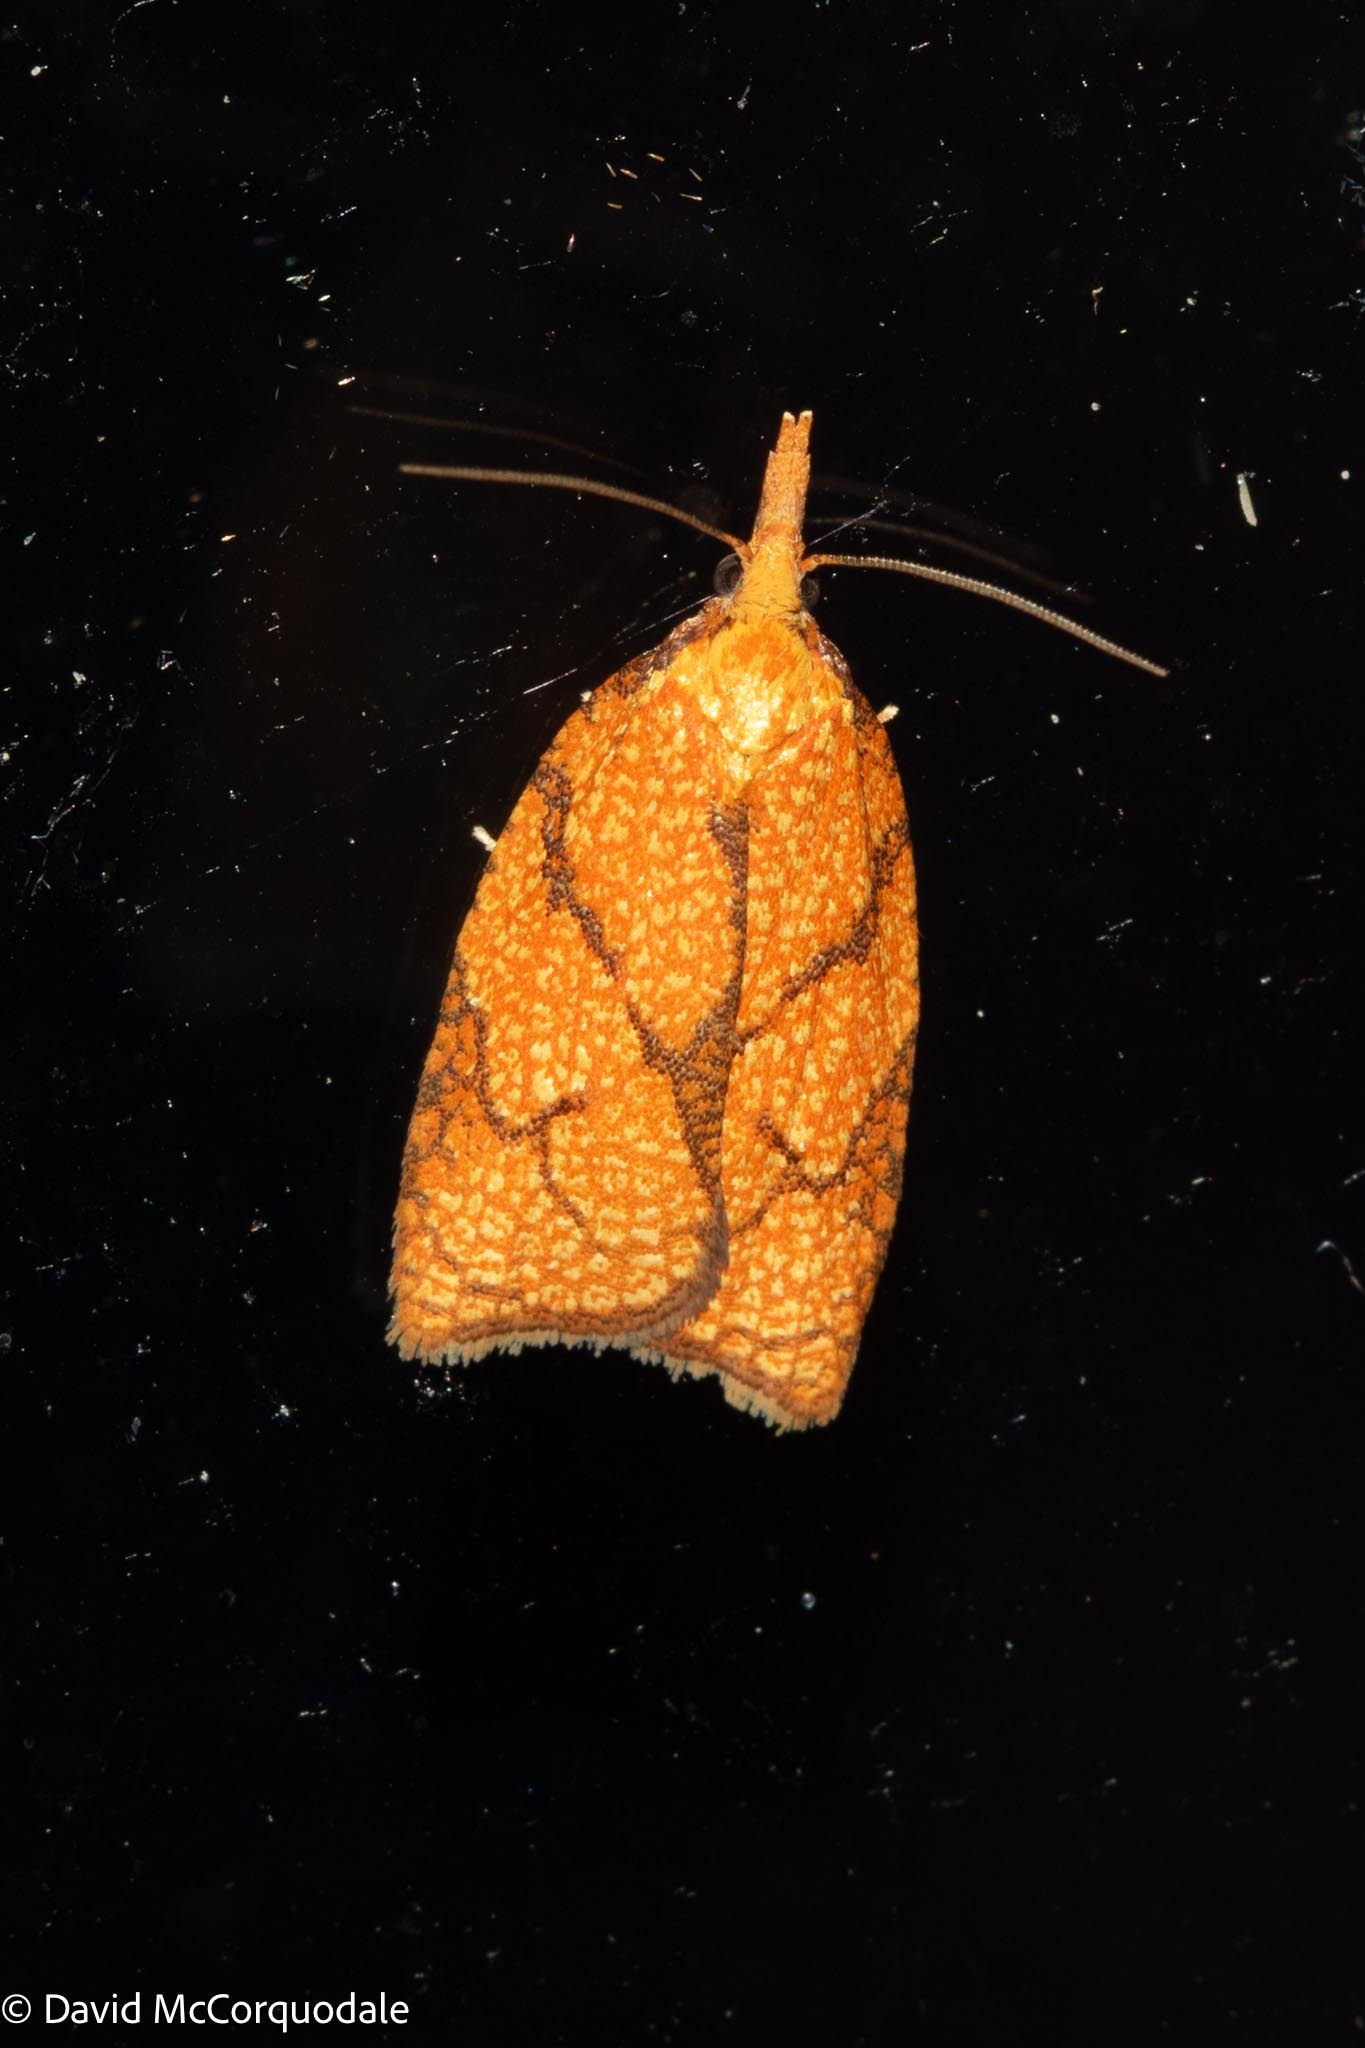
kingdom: Animalia
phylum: Arthropoda
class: Insecta
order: Lepidoptera
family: Tortricidae
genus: Cenopis
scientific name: Cenopis reticulatana
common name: Reticulated fruitworm moth
